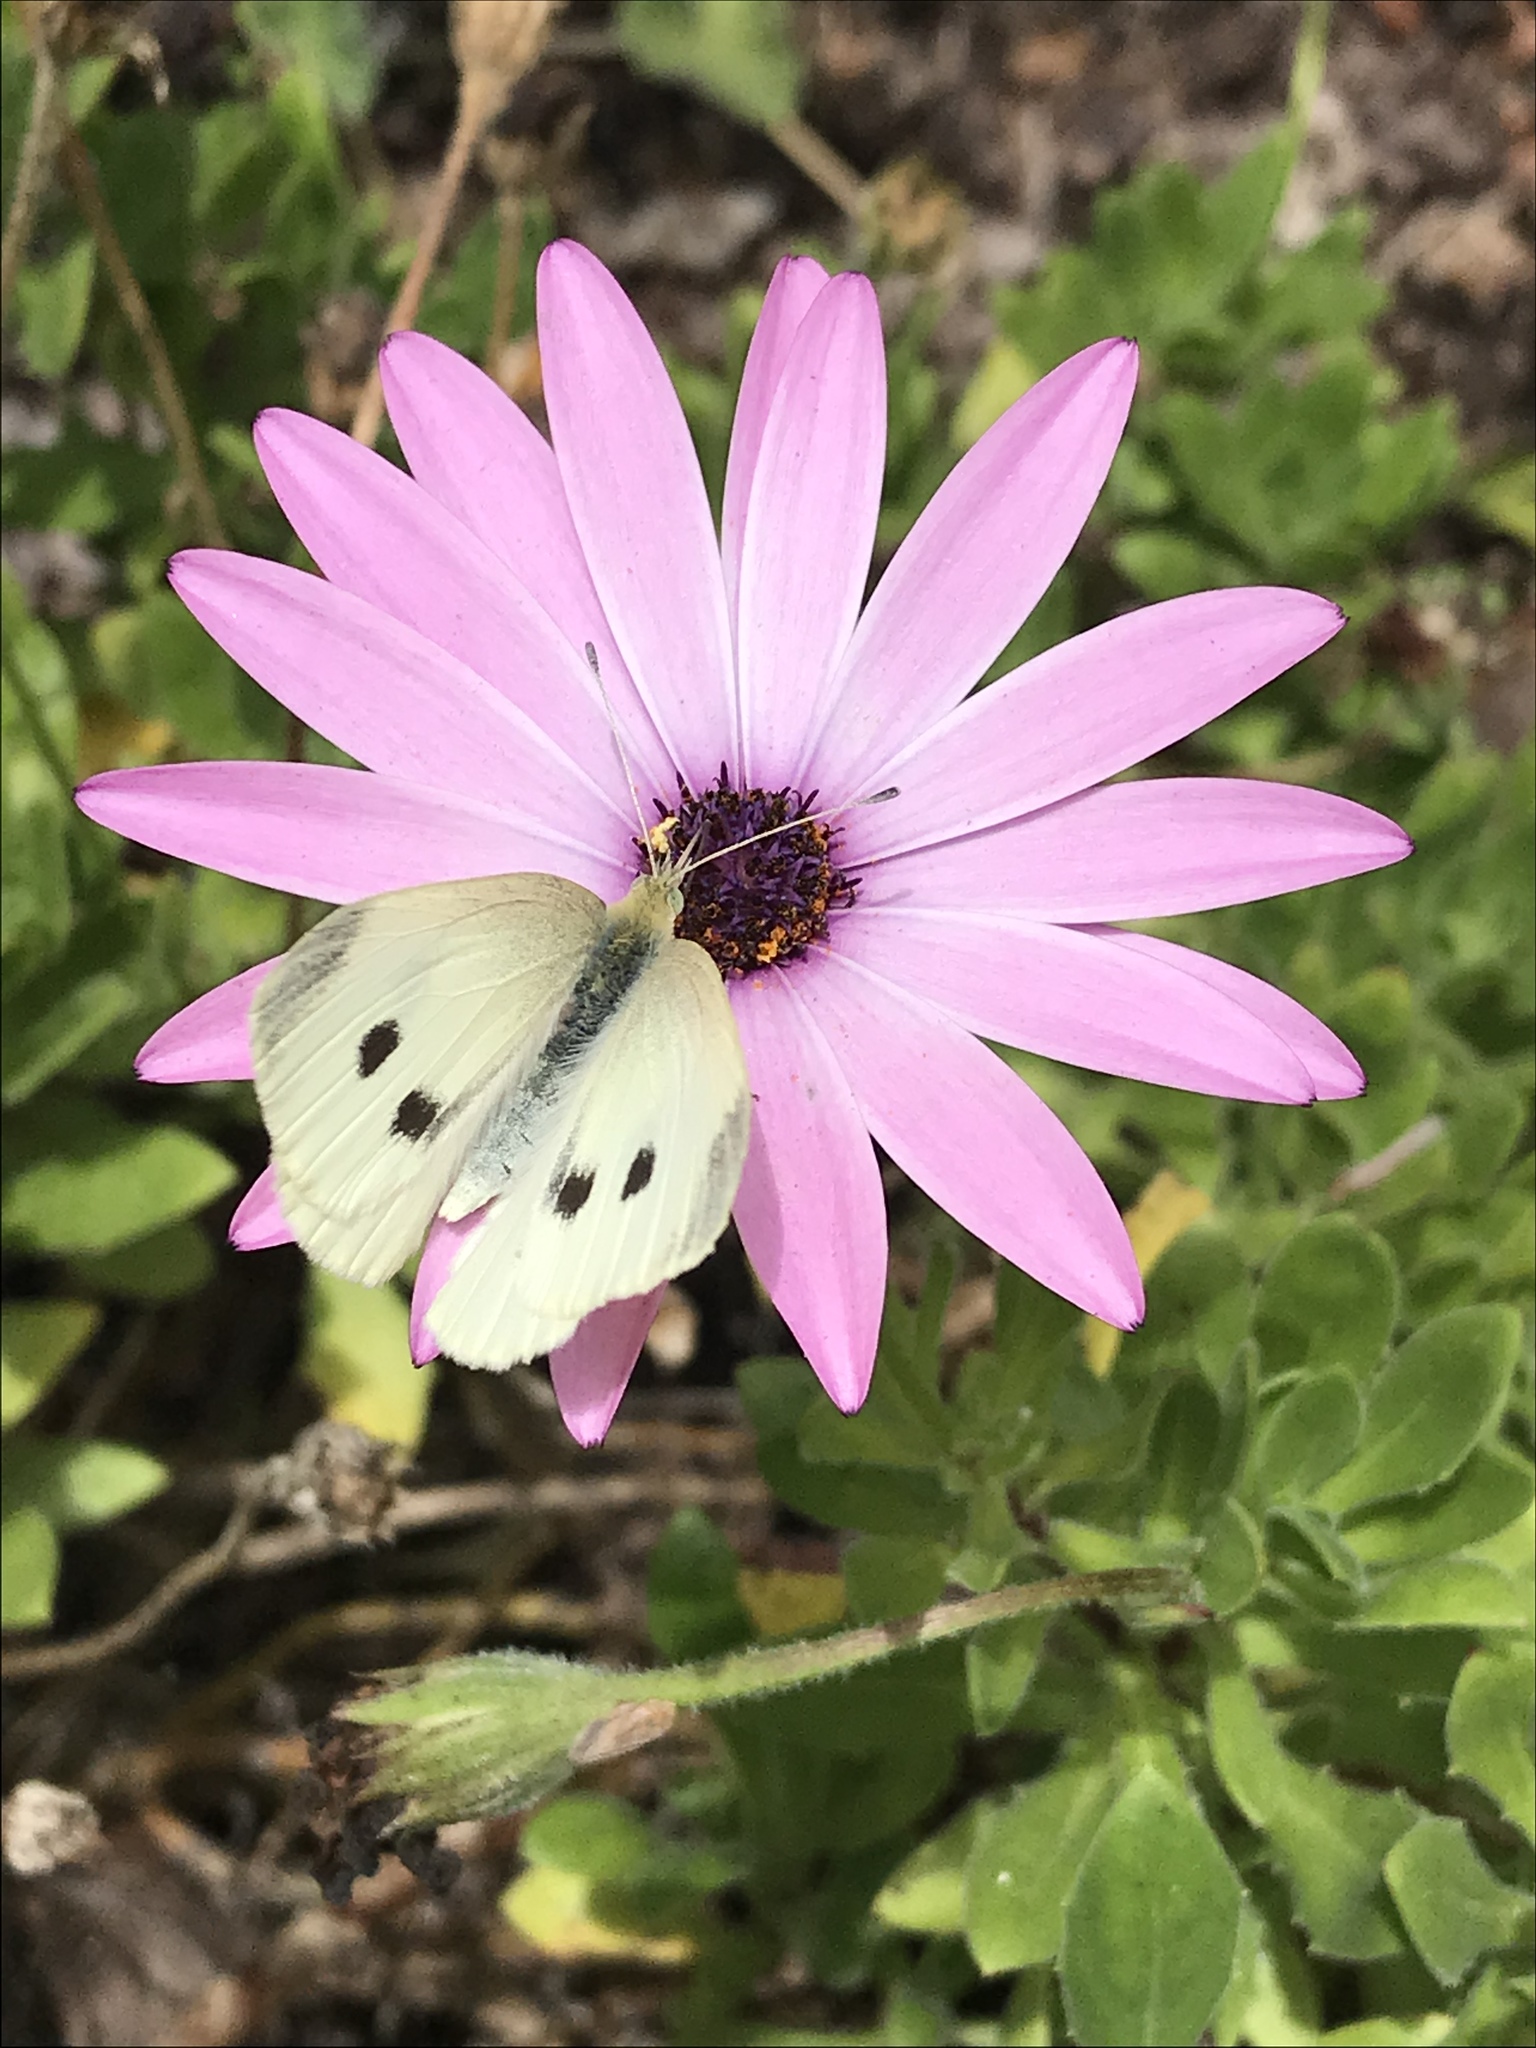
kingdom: Animalia
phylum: Arthropoda
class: Insecta
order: Lepidoptera
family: Pieridae
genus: Pieris
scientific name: Pieris rapae
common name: Small white
